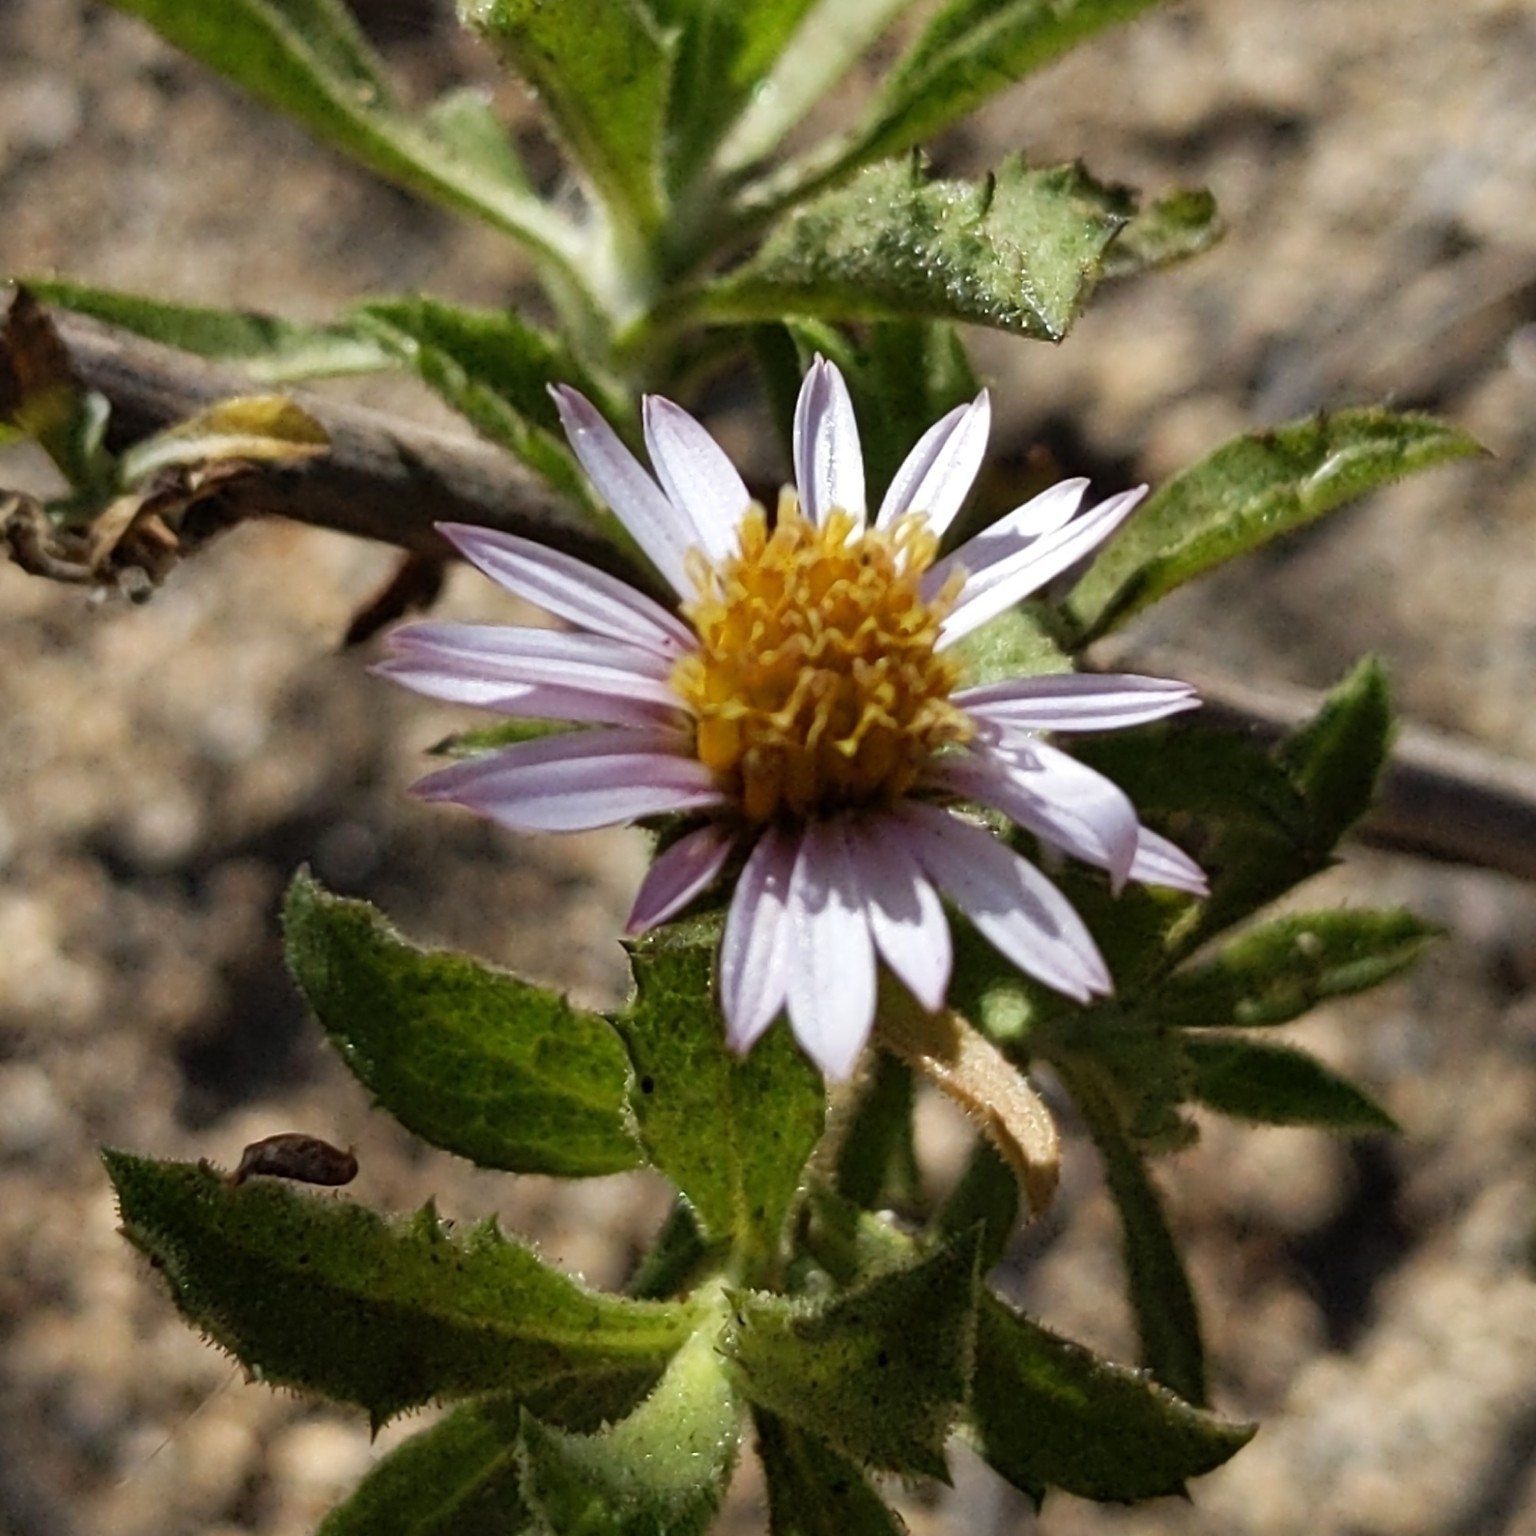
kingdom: Plantae
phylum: Tracheophyta
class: Magnoliopsida
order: Asterales
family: Asteraceae
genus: Corethrogyne
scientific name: Corethrogyne filaginifolia
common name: Sand-aster
